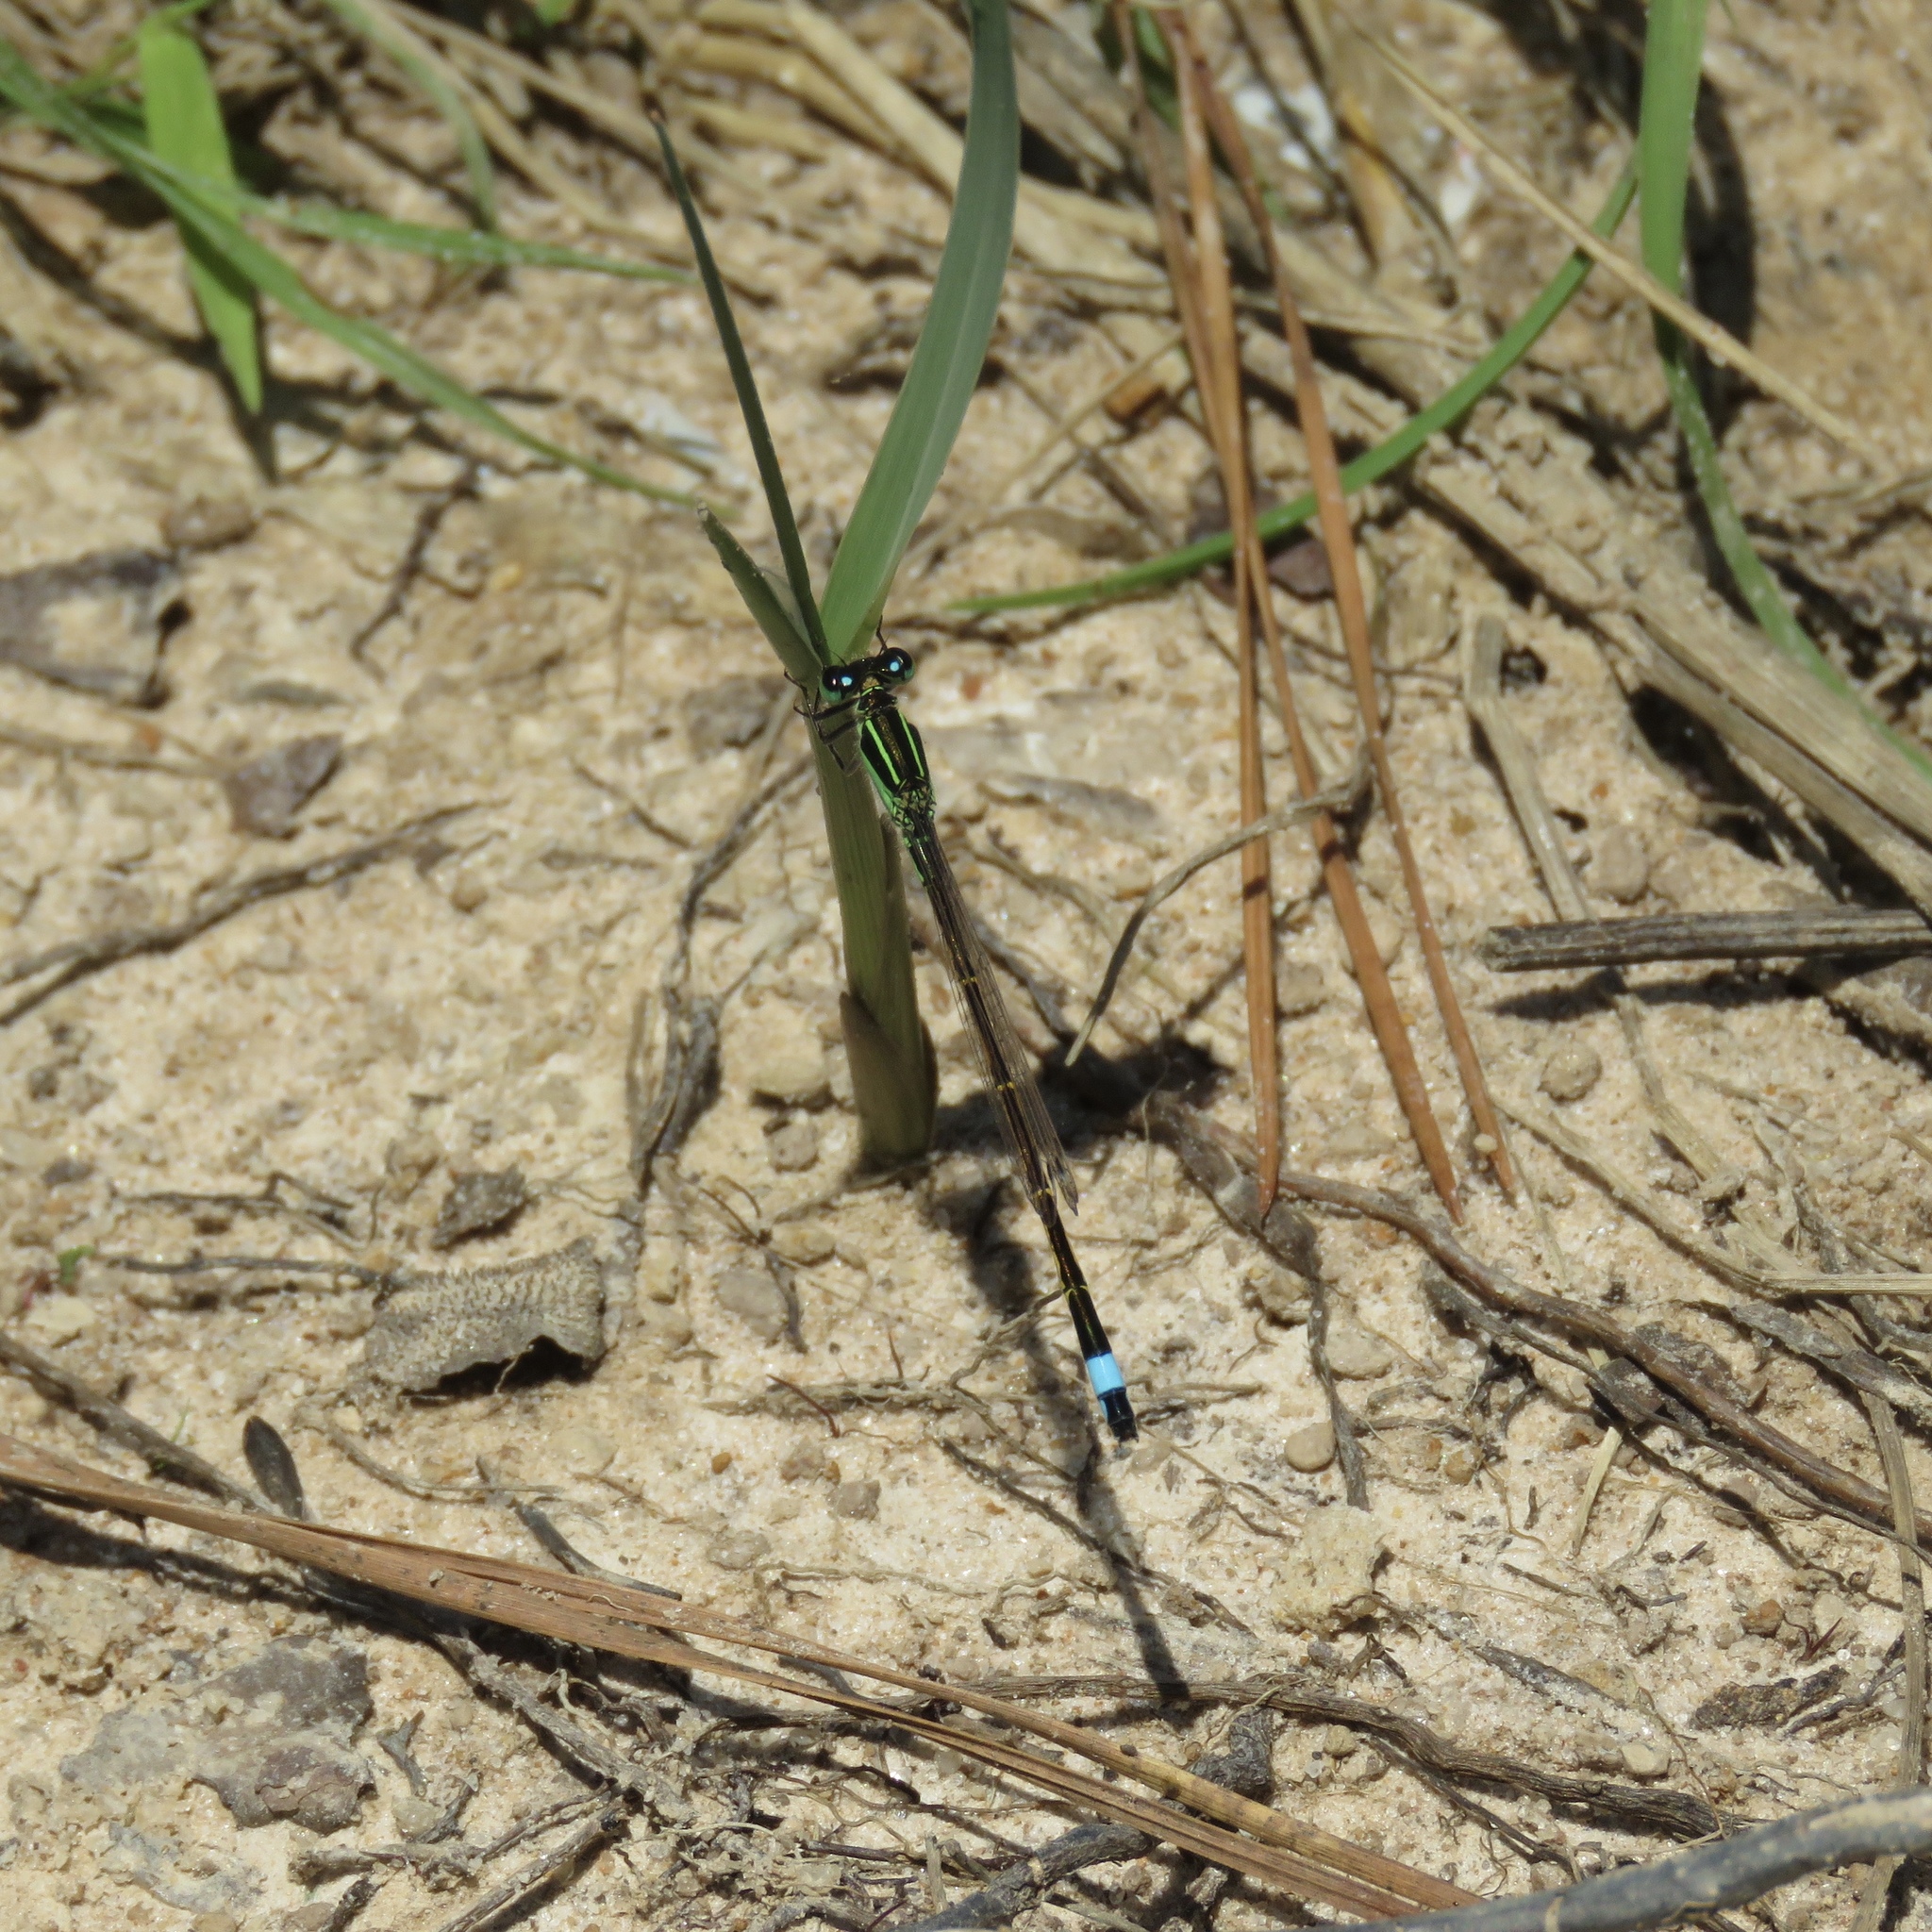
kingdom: Animalia
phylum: Arthropoda
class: Insecta
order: Odonata
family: Coenagrionidae
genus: Ischnura
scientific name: Ischnura ramburii
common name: Rambur's forktail
